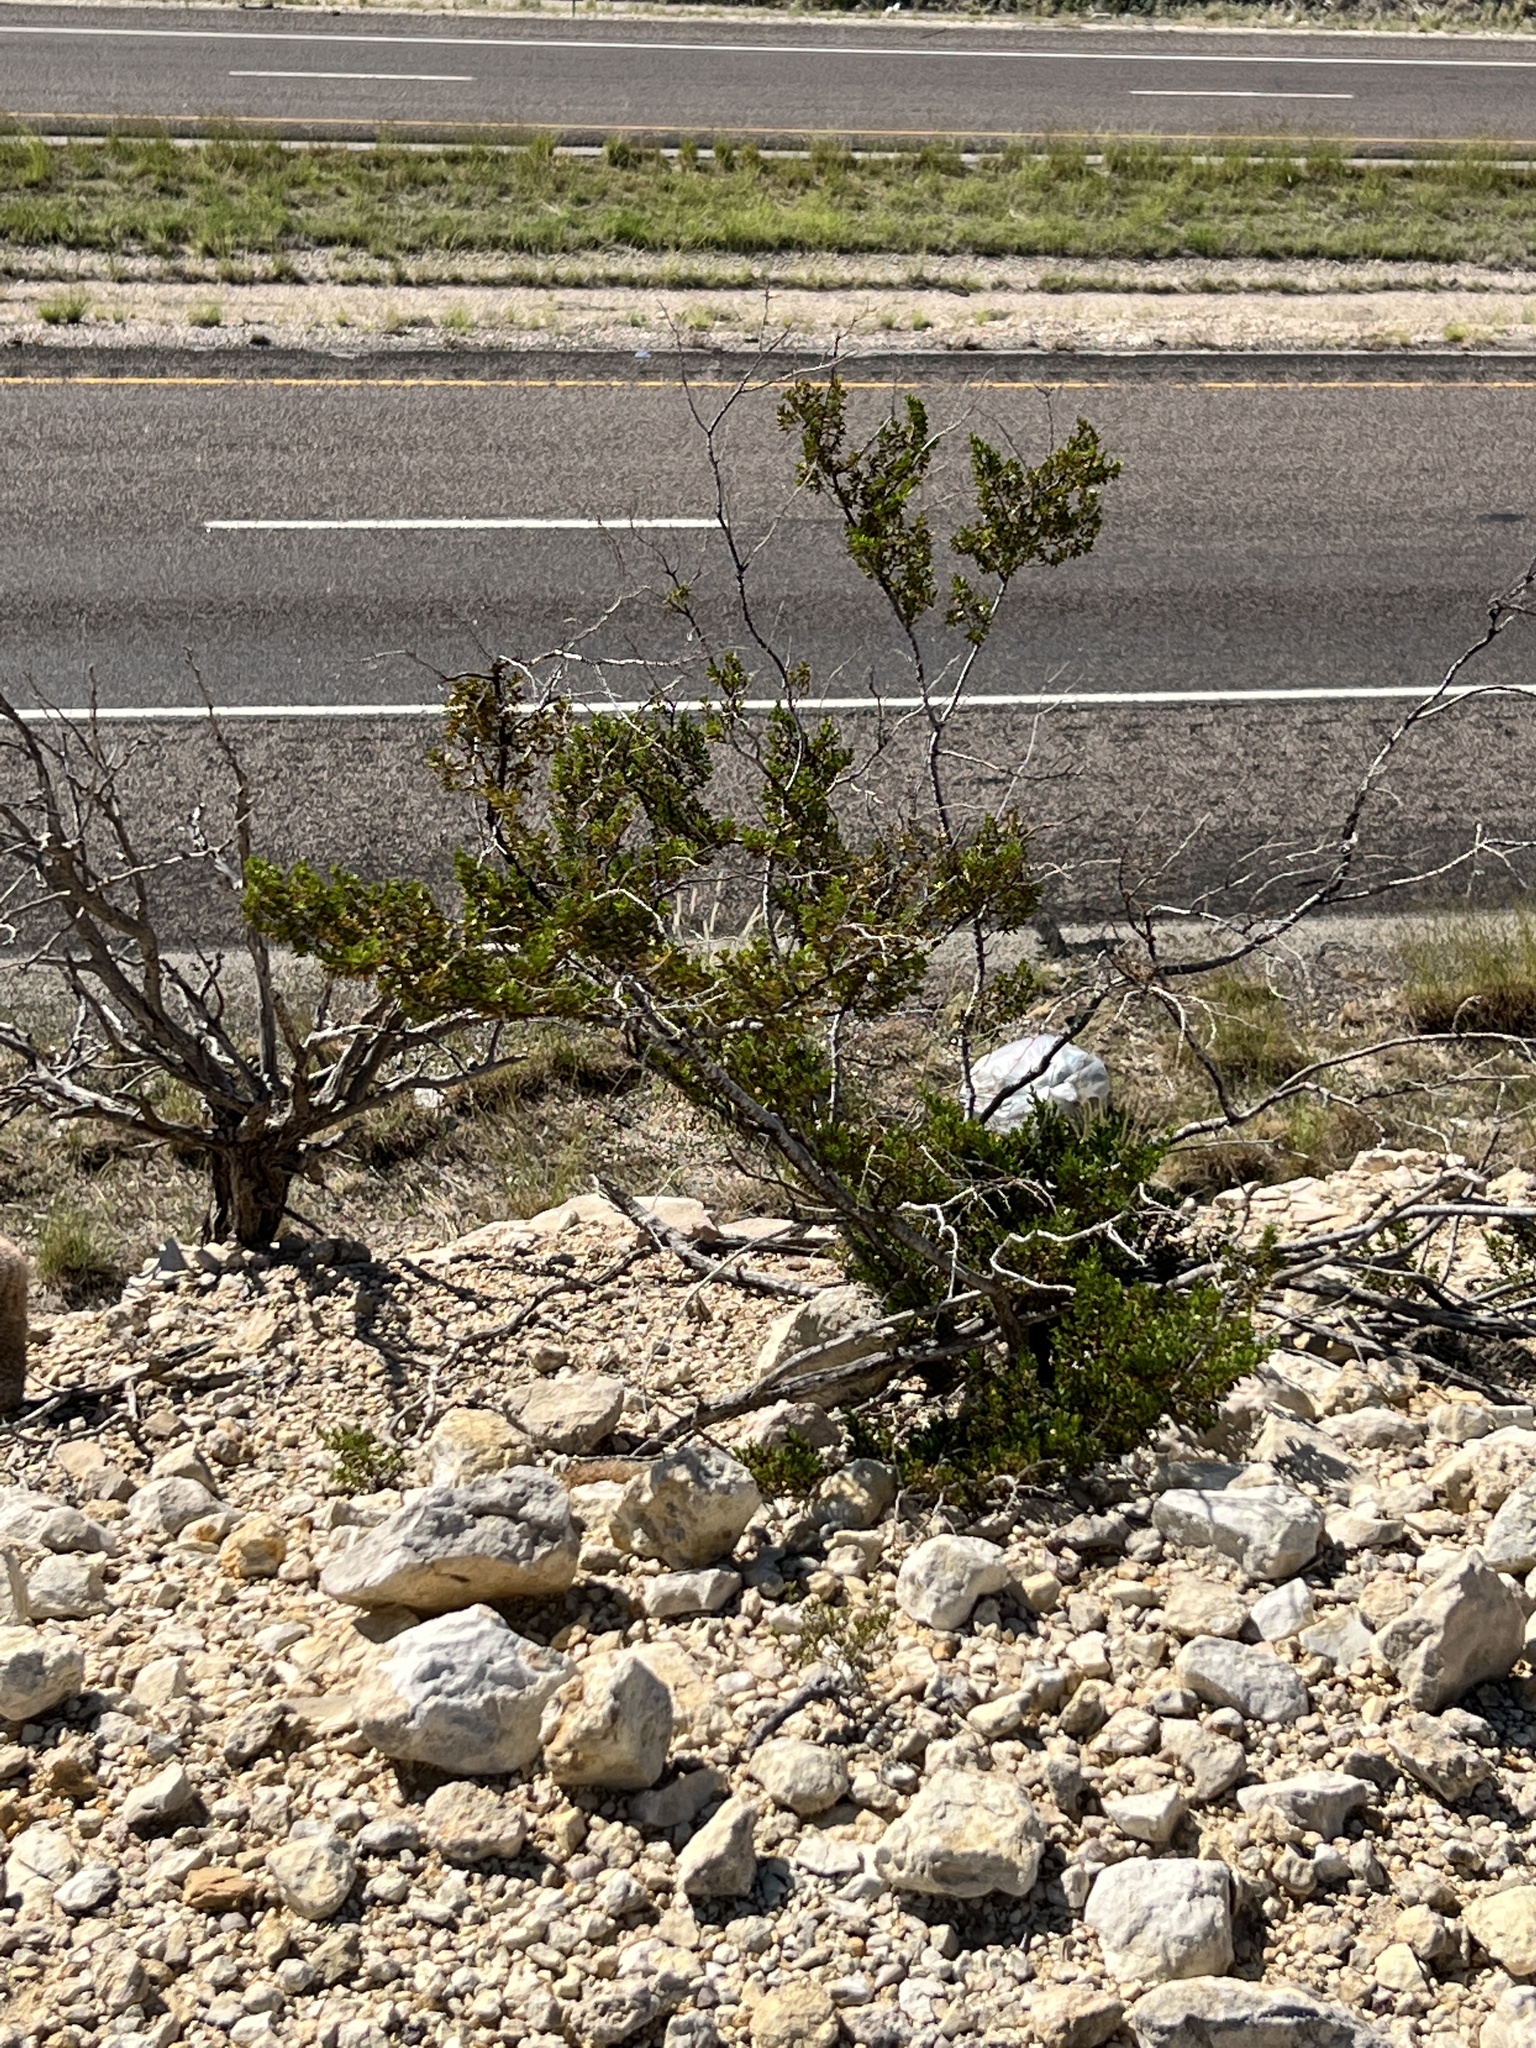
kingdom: Plantae
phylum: Tracheophyta
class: Magnoliopsida
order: Zygophyllales
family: Zygophyllaceae
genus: Larrea
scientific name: Larrea tridentata
